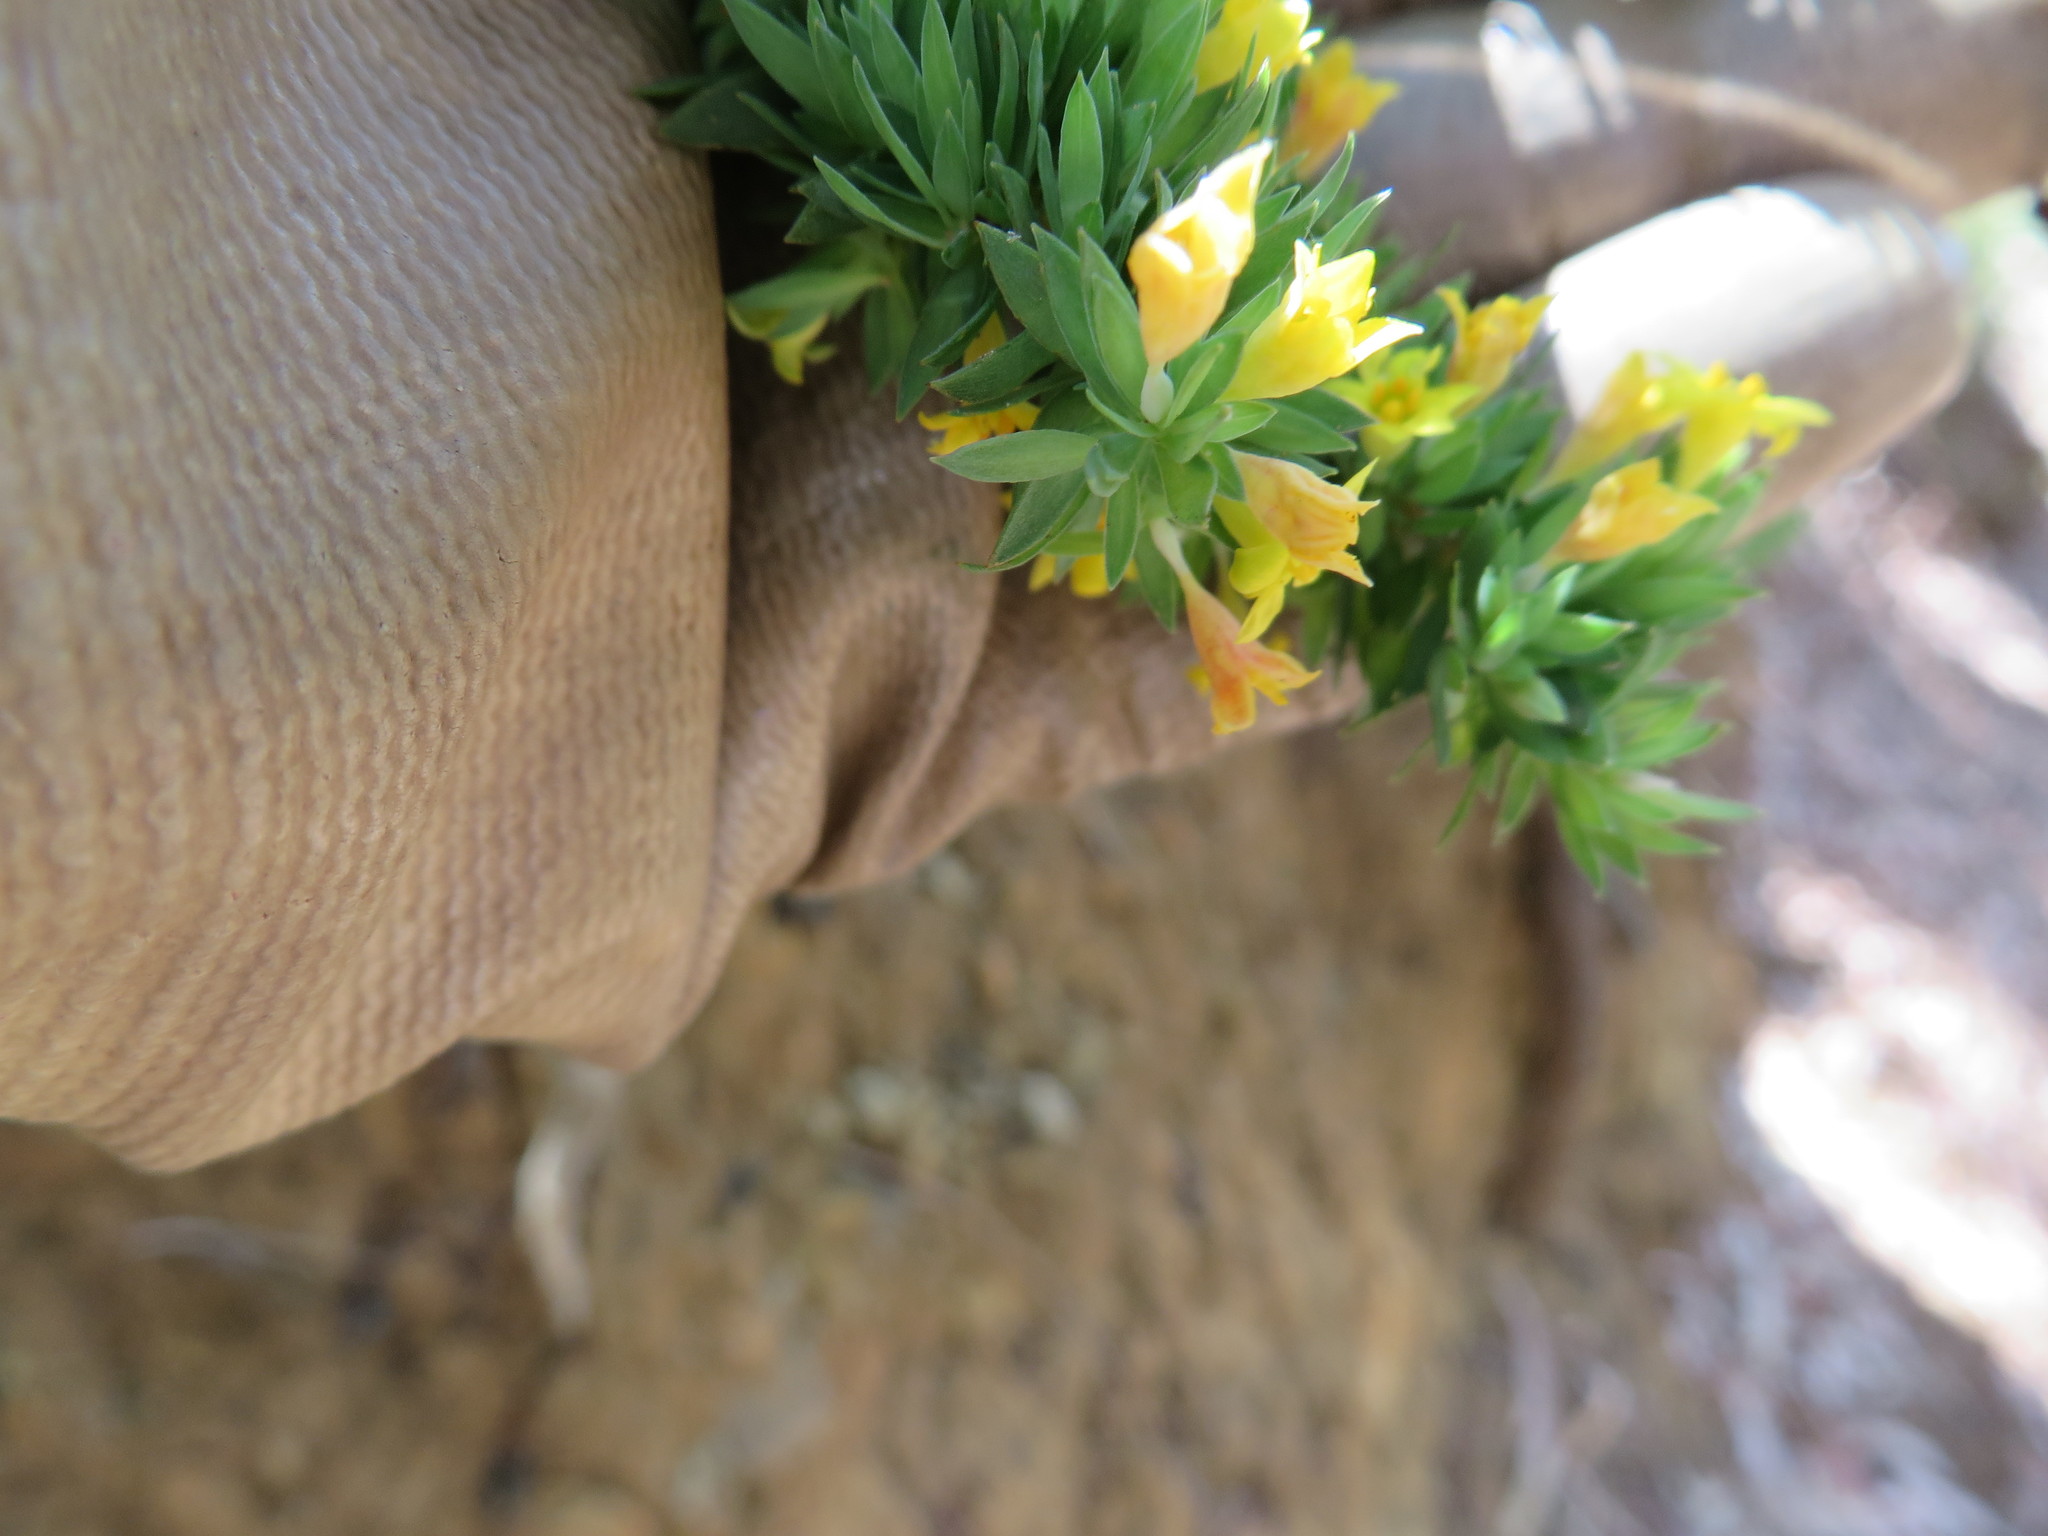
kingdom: Plantae
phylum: Tracheophyta
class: Magnoliopsida
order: Malvales
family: Thymelaeaceae
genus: Gnidia
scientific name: Gnidia juniperifolia
